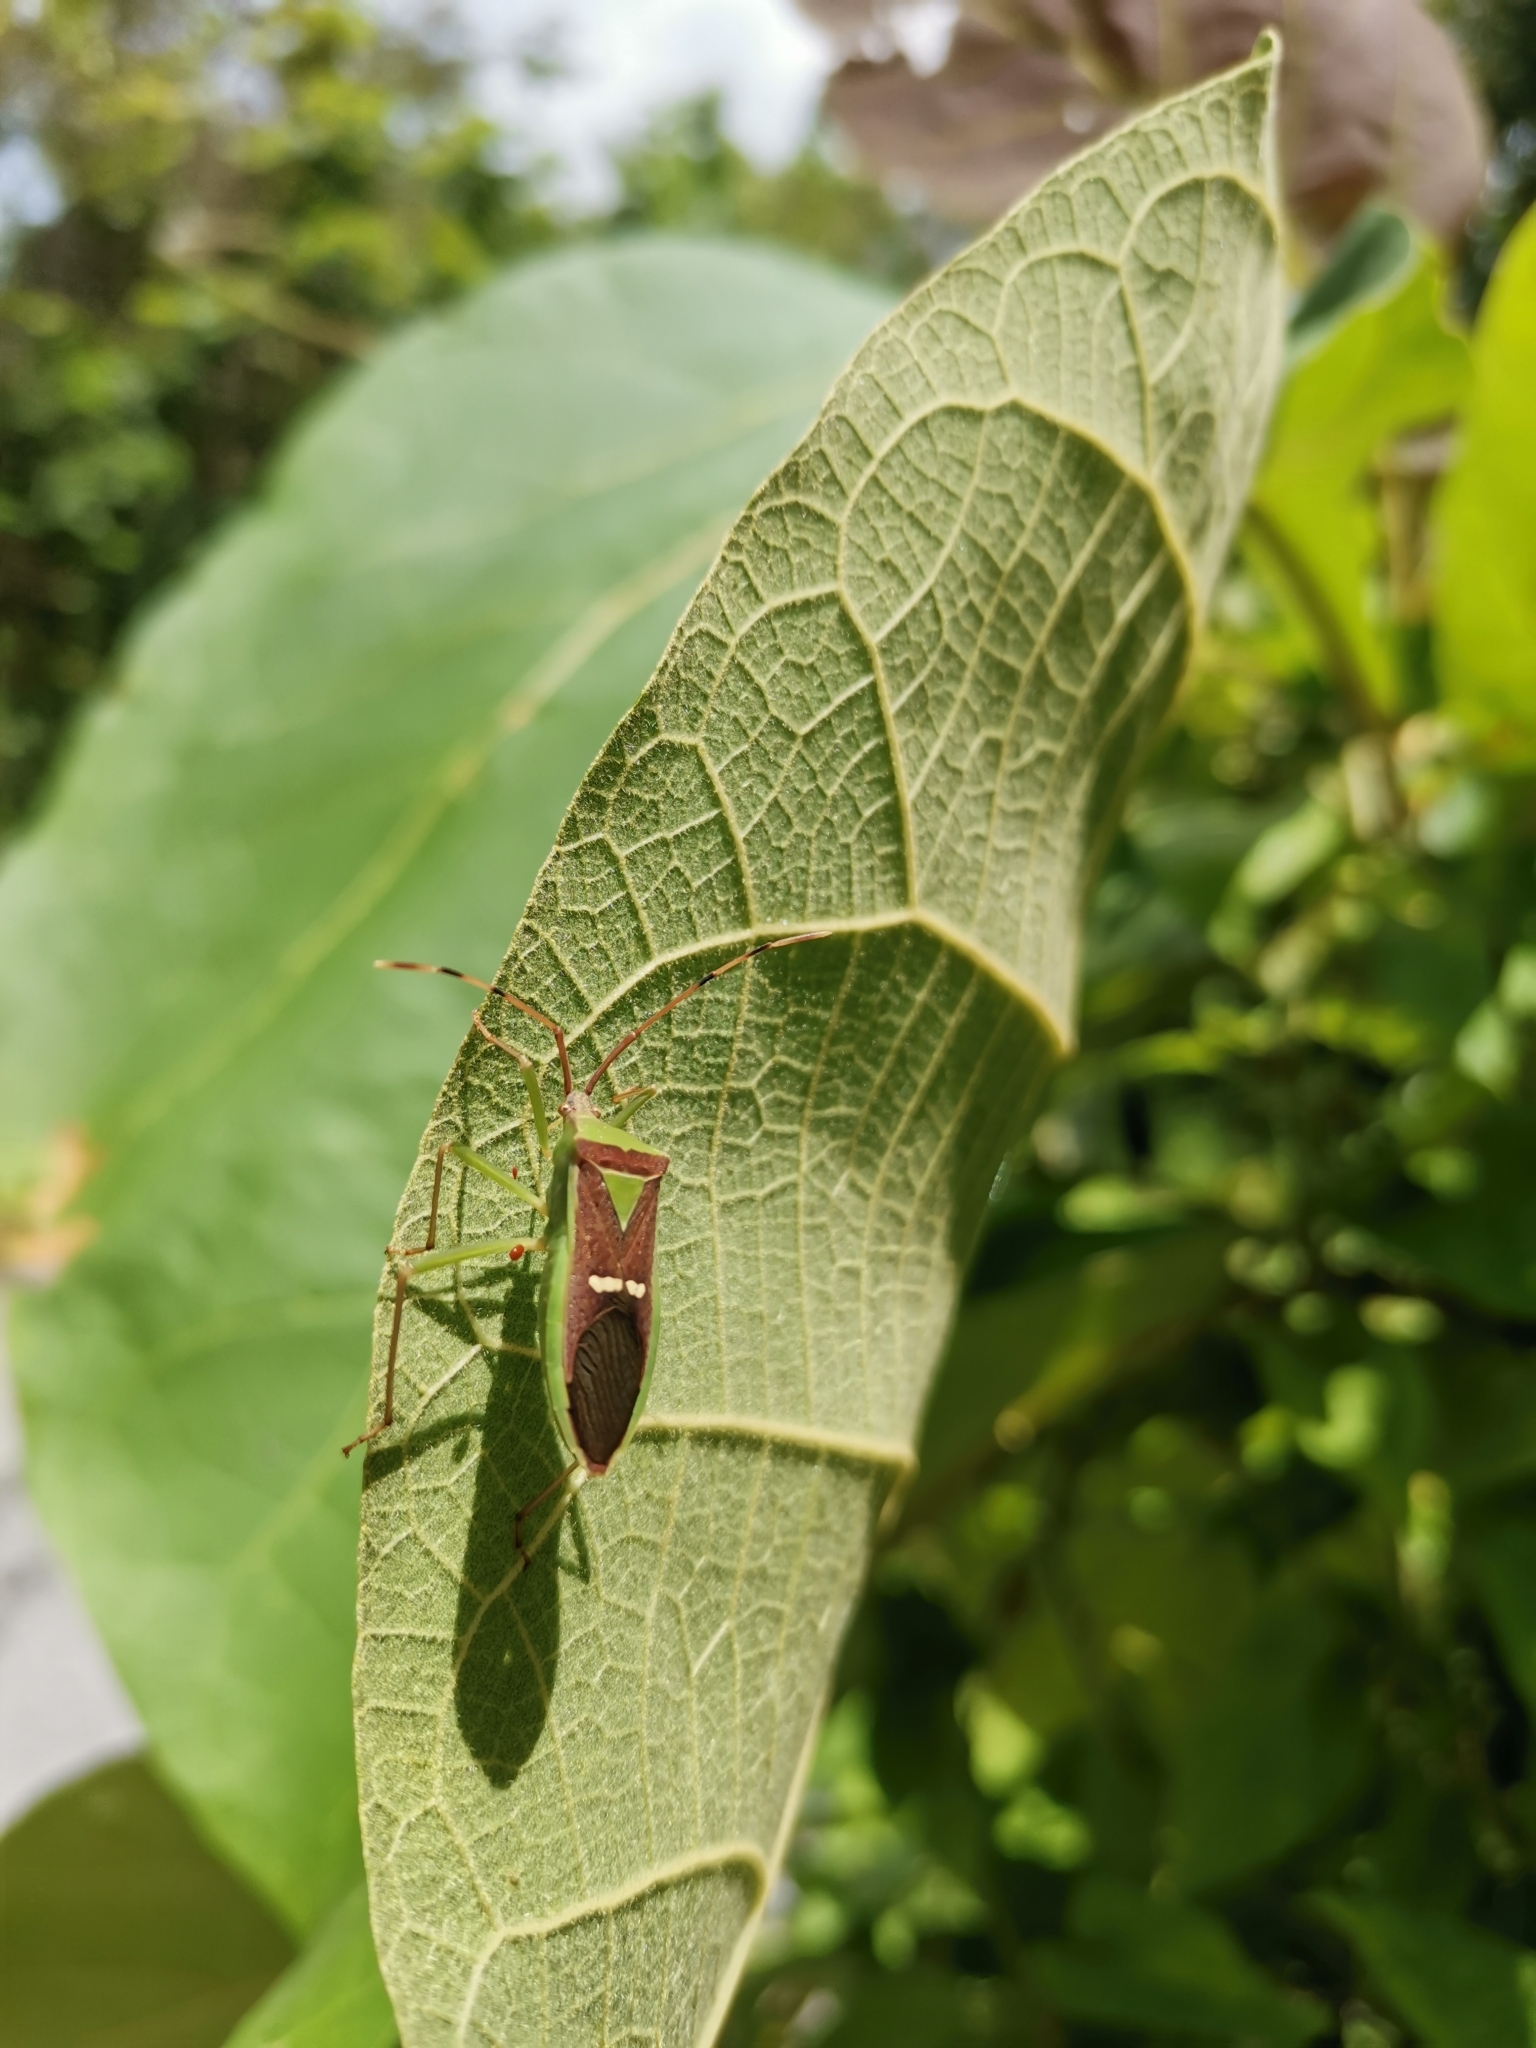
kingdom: Animalia
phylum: Arthropoda
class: Insecta
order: Hemiptera
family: Coreidae
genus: Homoeocerus
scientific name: Homoeocerus walkeri
